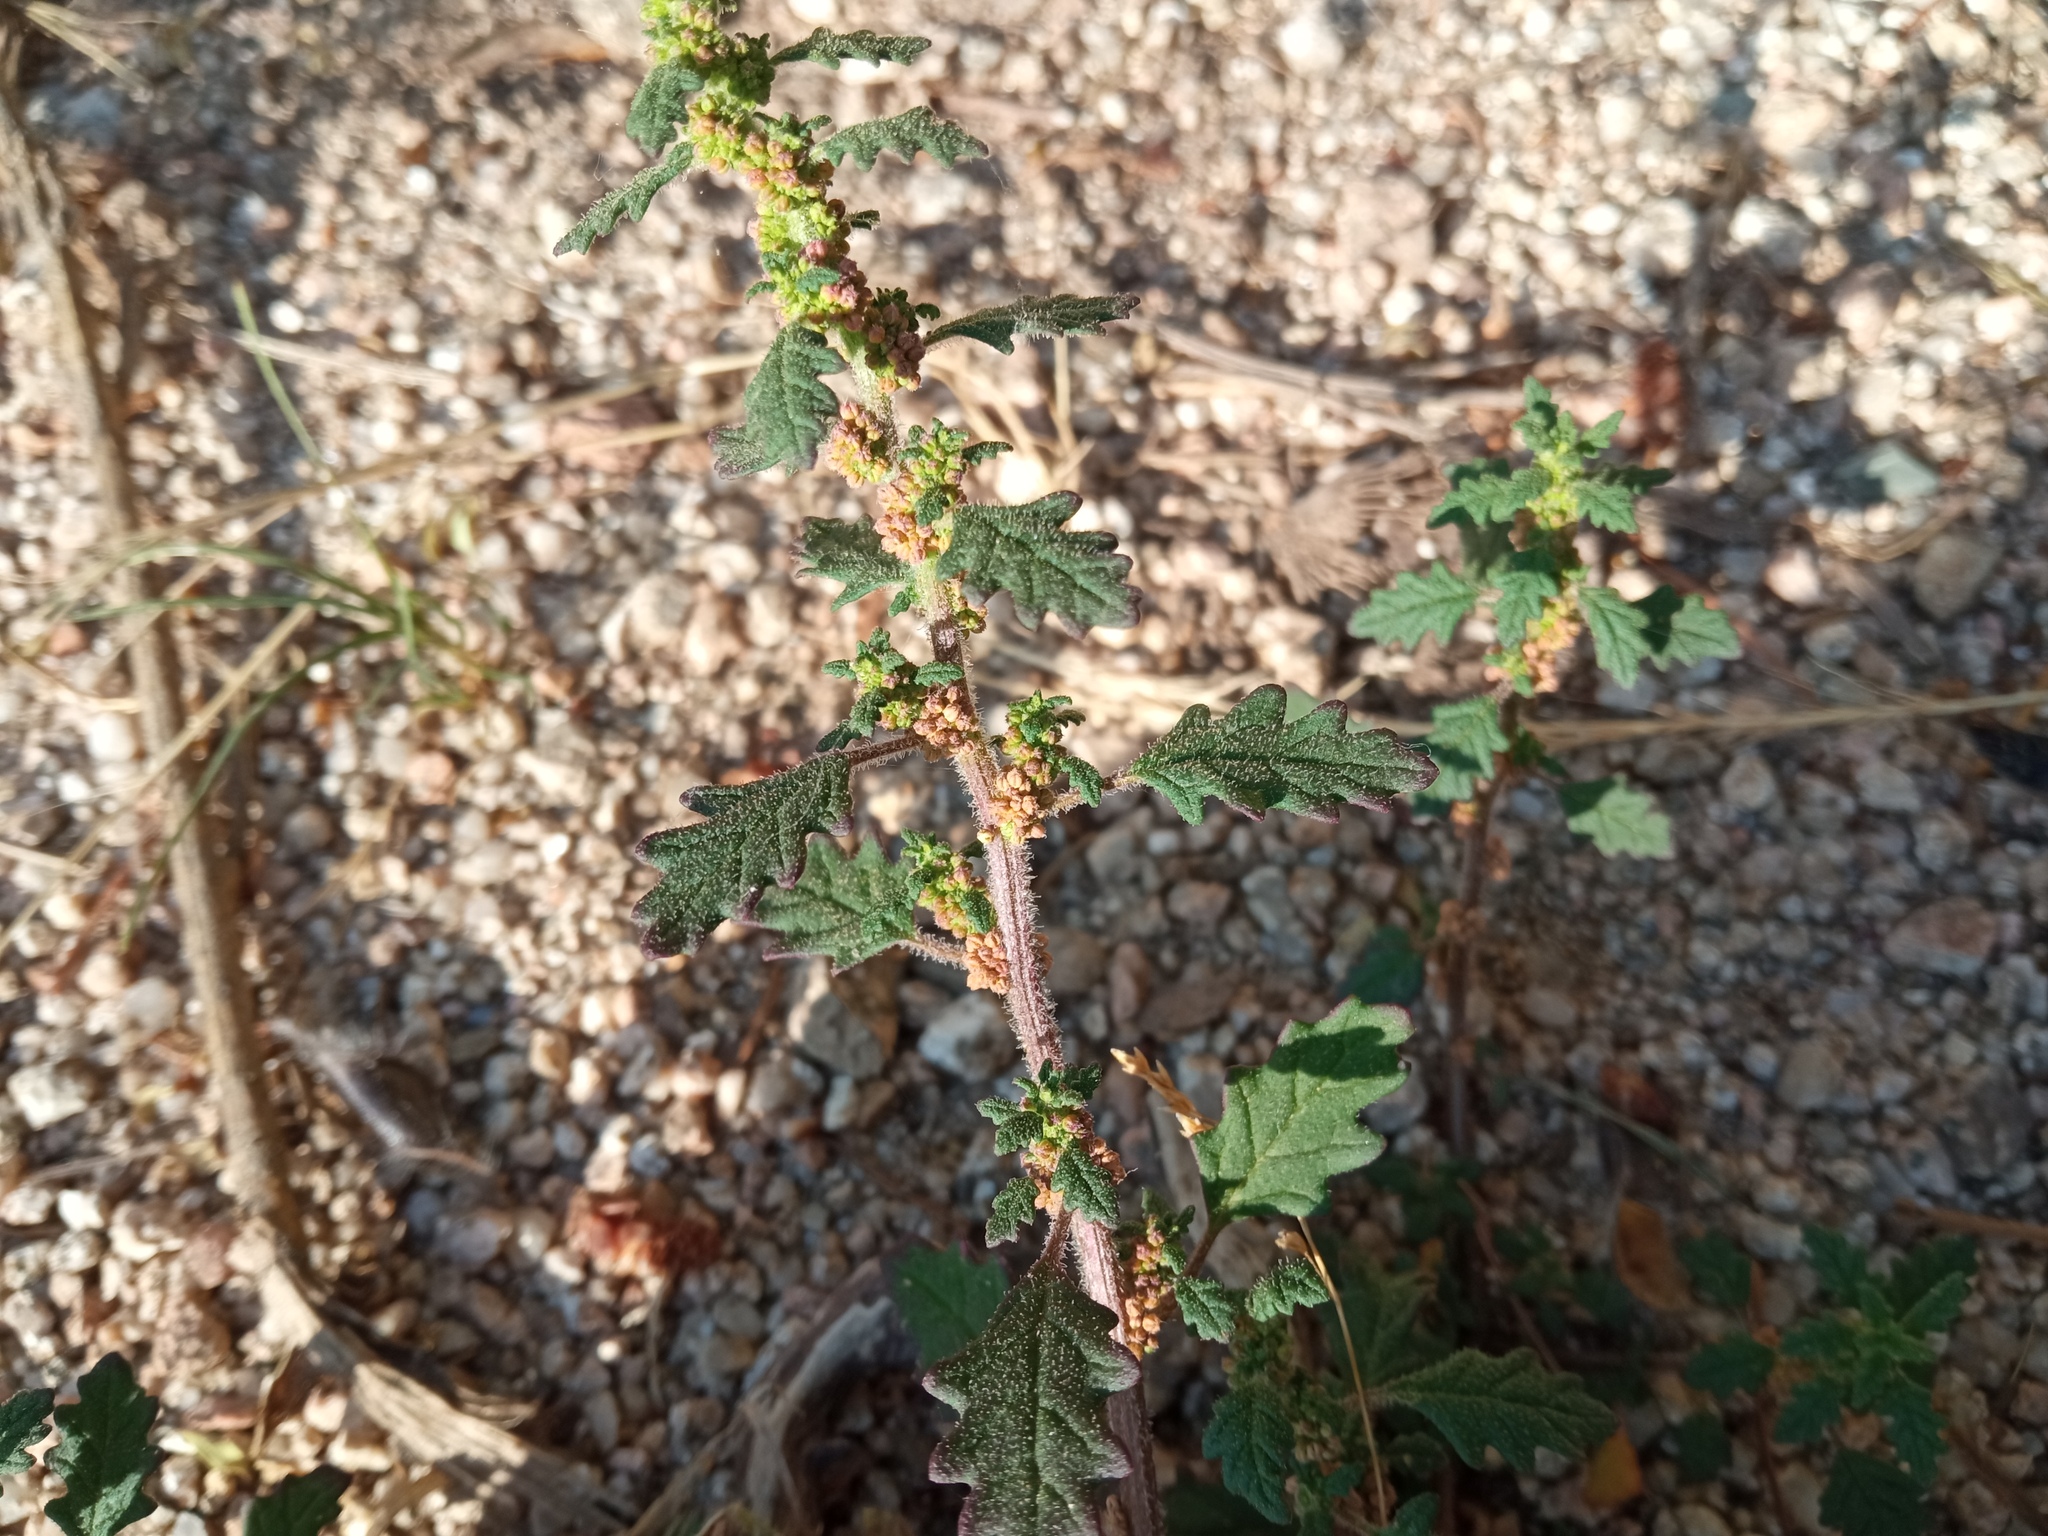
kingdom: Plantae
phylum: Tracheophyta
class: Magnoliopsida
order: Caryophyllales
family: Amaranthaceae
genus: Dysphania
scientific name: Dysphania pumilio
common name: Clammy goosefoot
